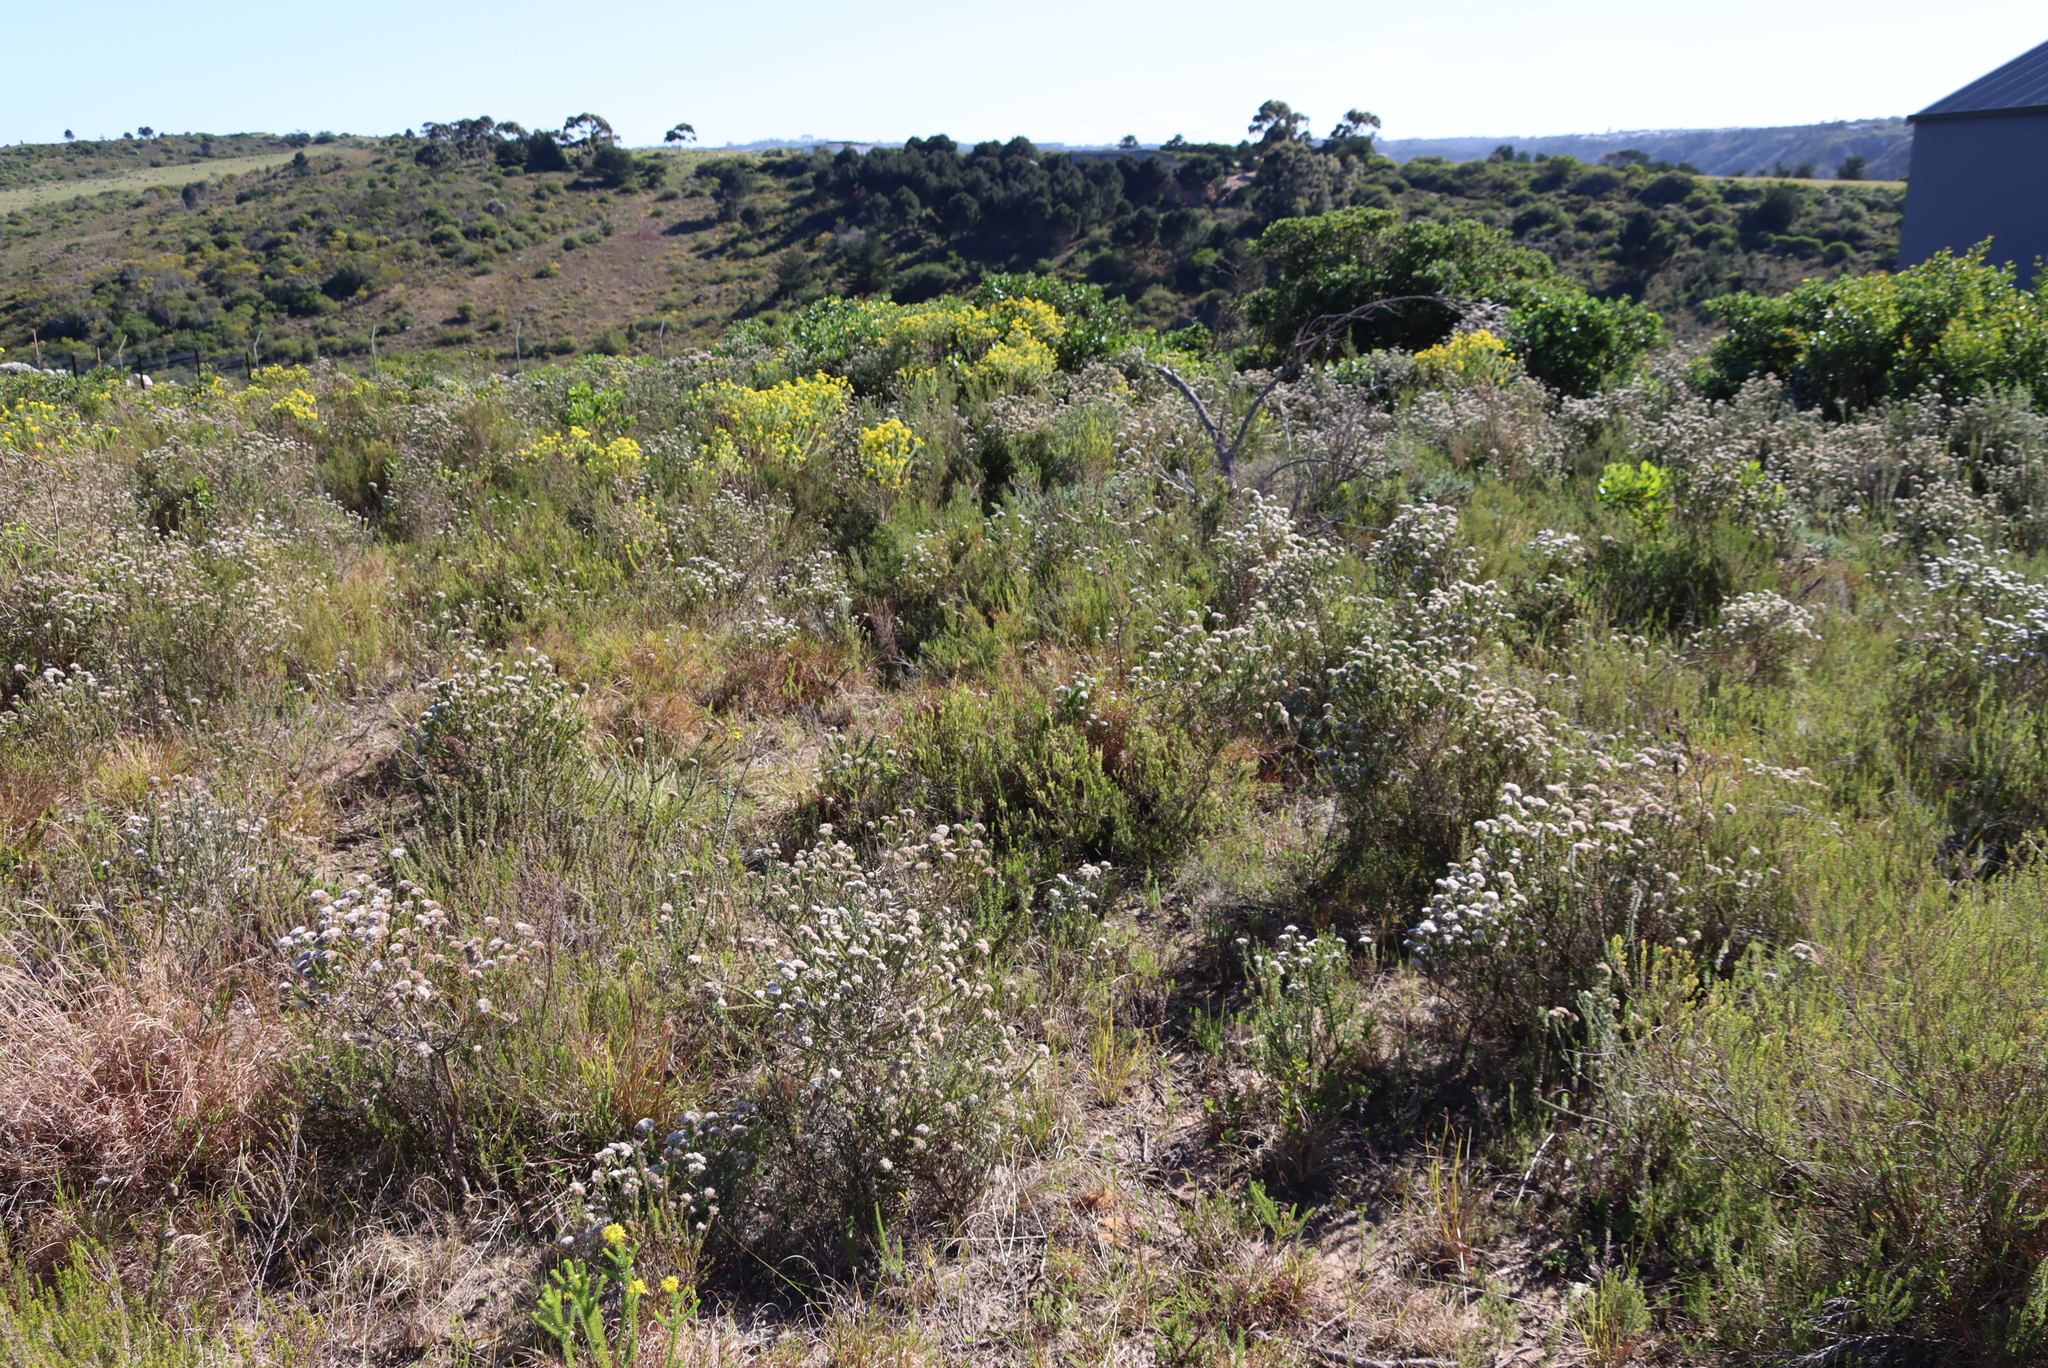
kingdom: Plantae
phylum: Tracheophyta
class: Magnoliopsida
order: Asterales
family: Asteraceae
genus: Metalasia
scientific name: Metalasia pungens
